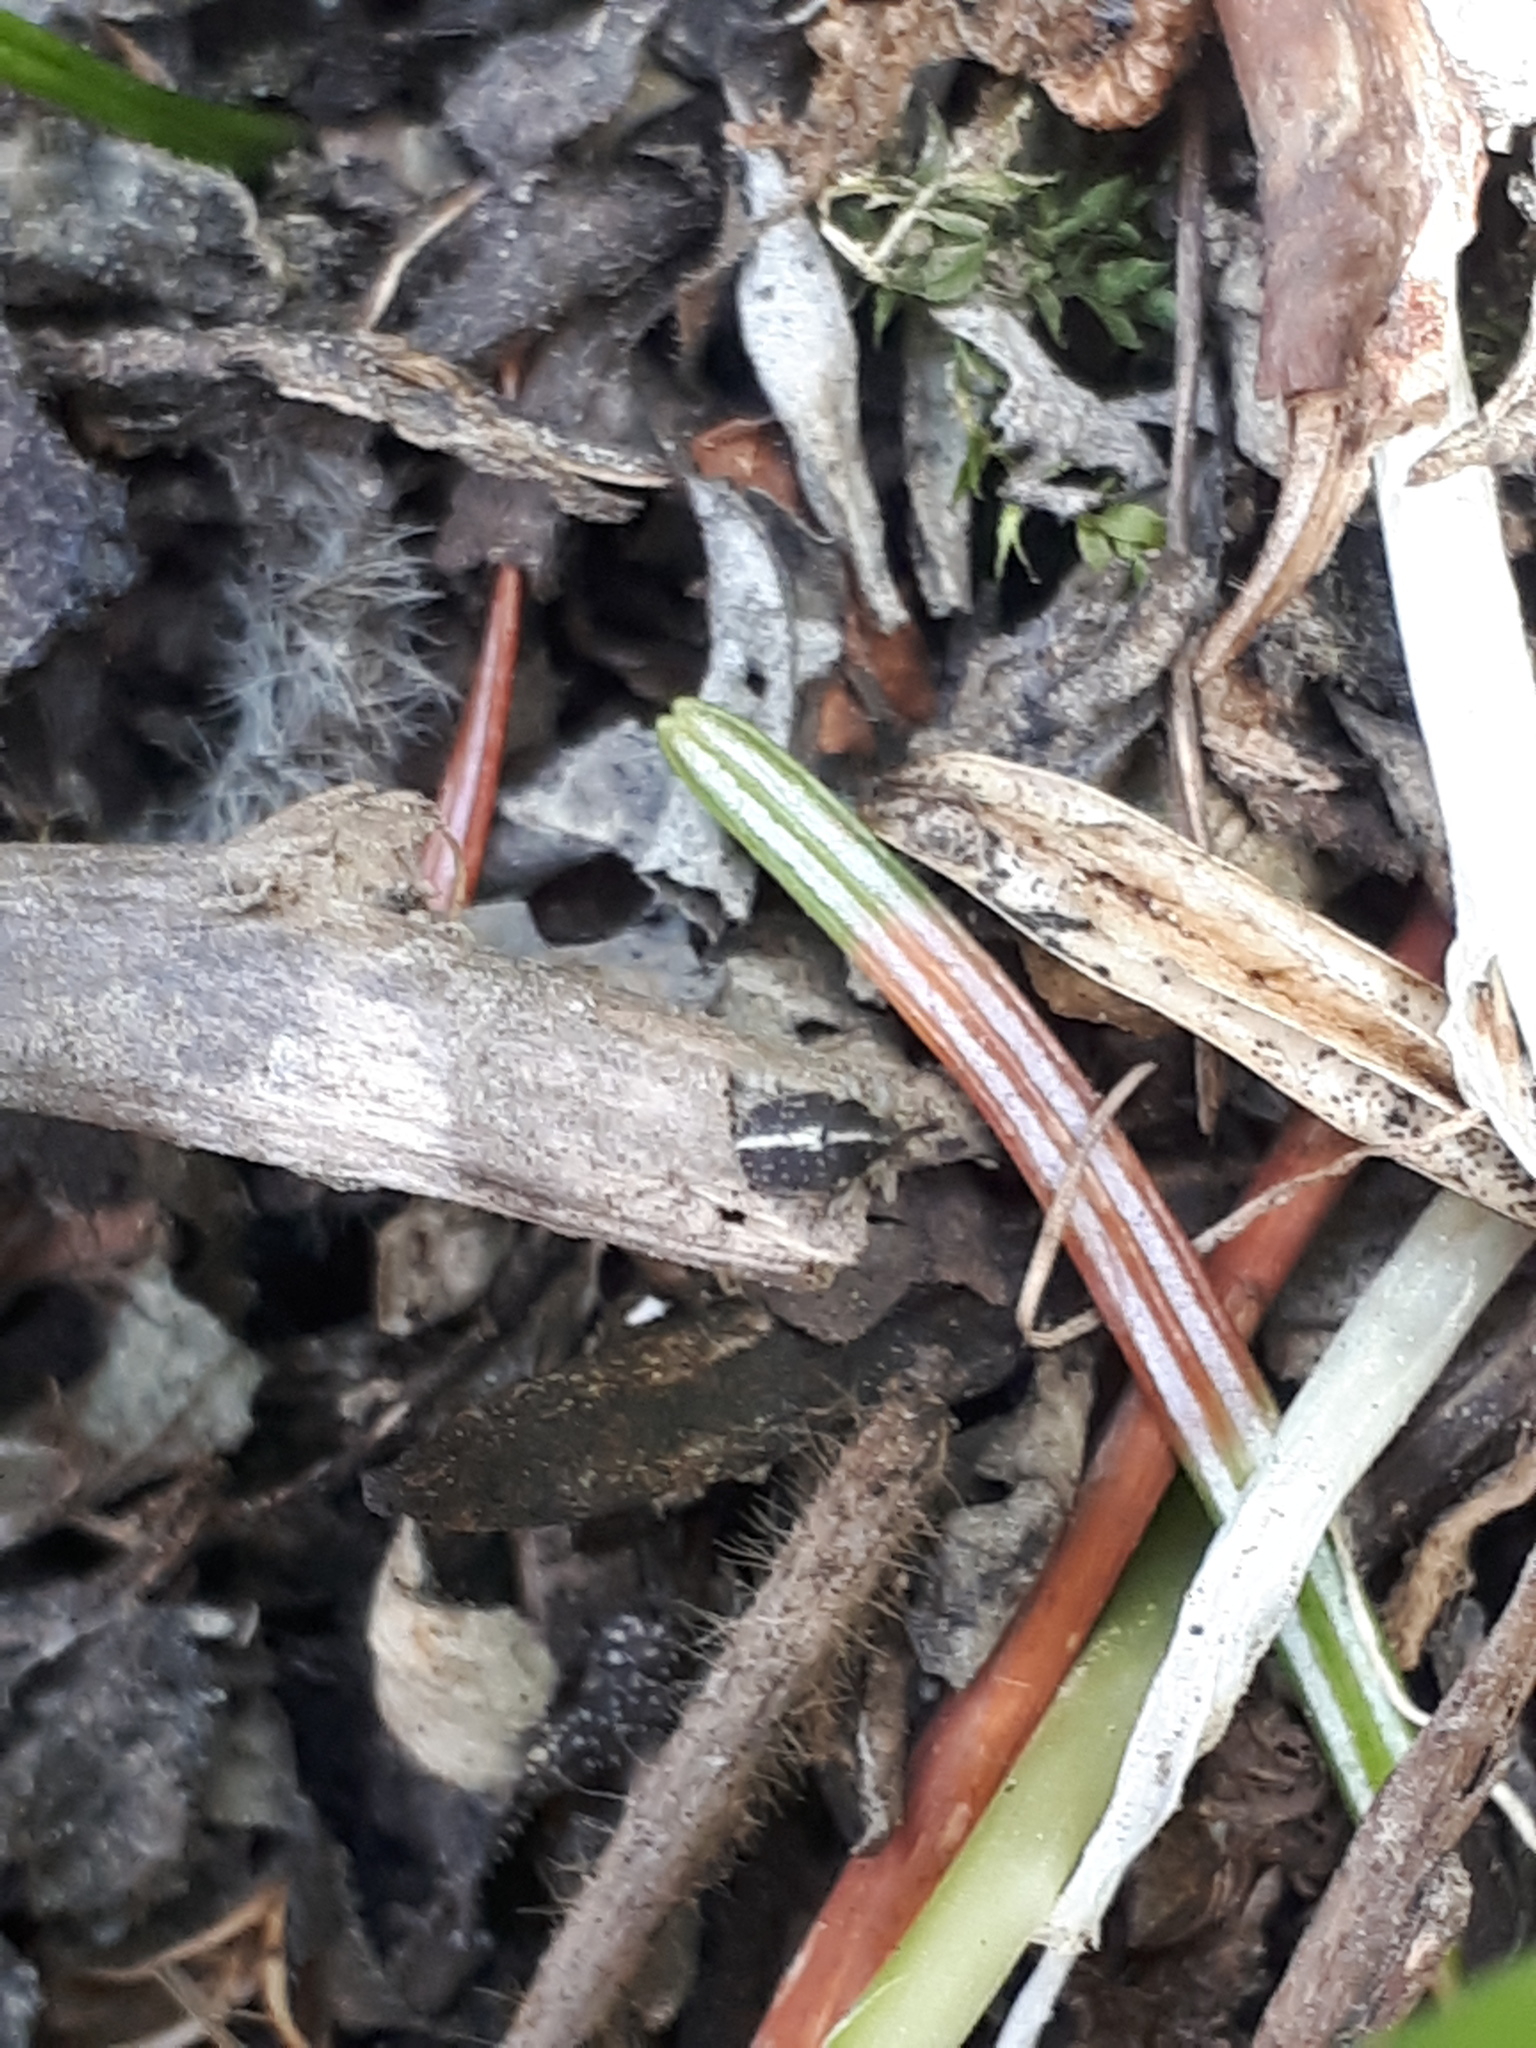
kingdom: Animalia
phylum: Arthropoda
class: Insecta
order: Coleoptera
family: Curculionidae
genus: Oprohinus
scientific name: Oprohinus suturalis
